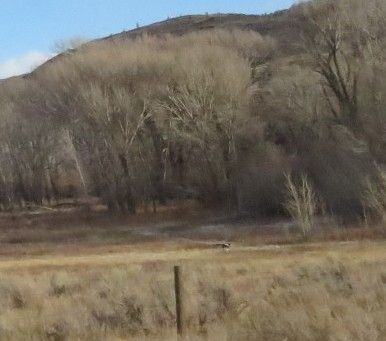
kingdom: Animalia
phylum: Chordata
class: Aves
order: Passeriformes
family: Corvidae
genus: Pica
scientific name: Pica hudsonia
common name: Black-billed magpie
